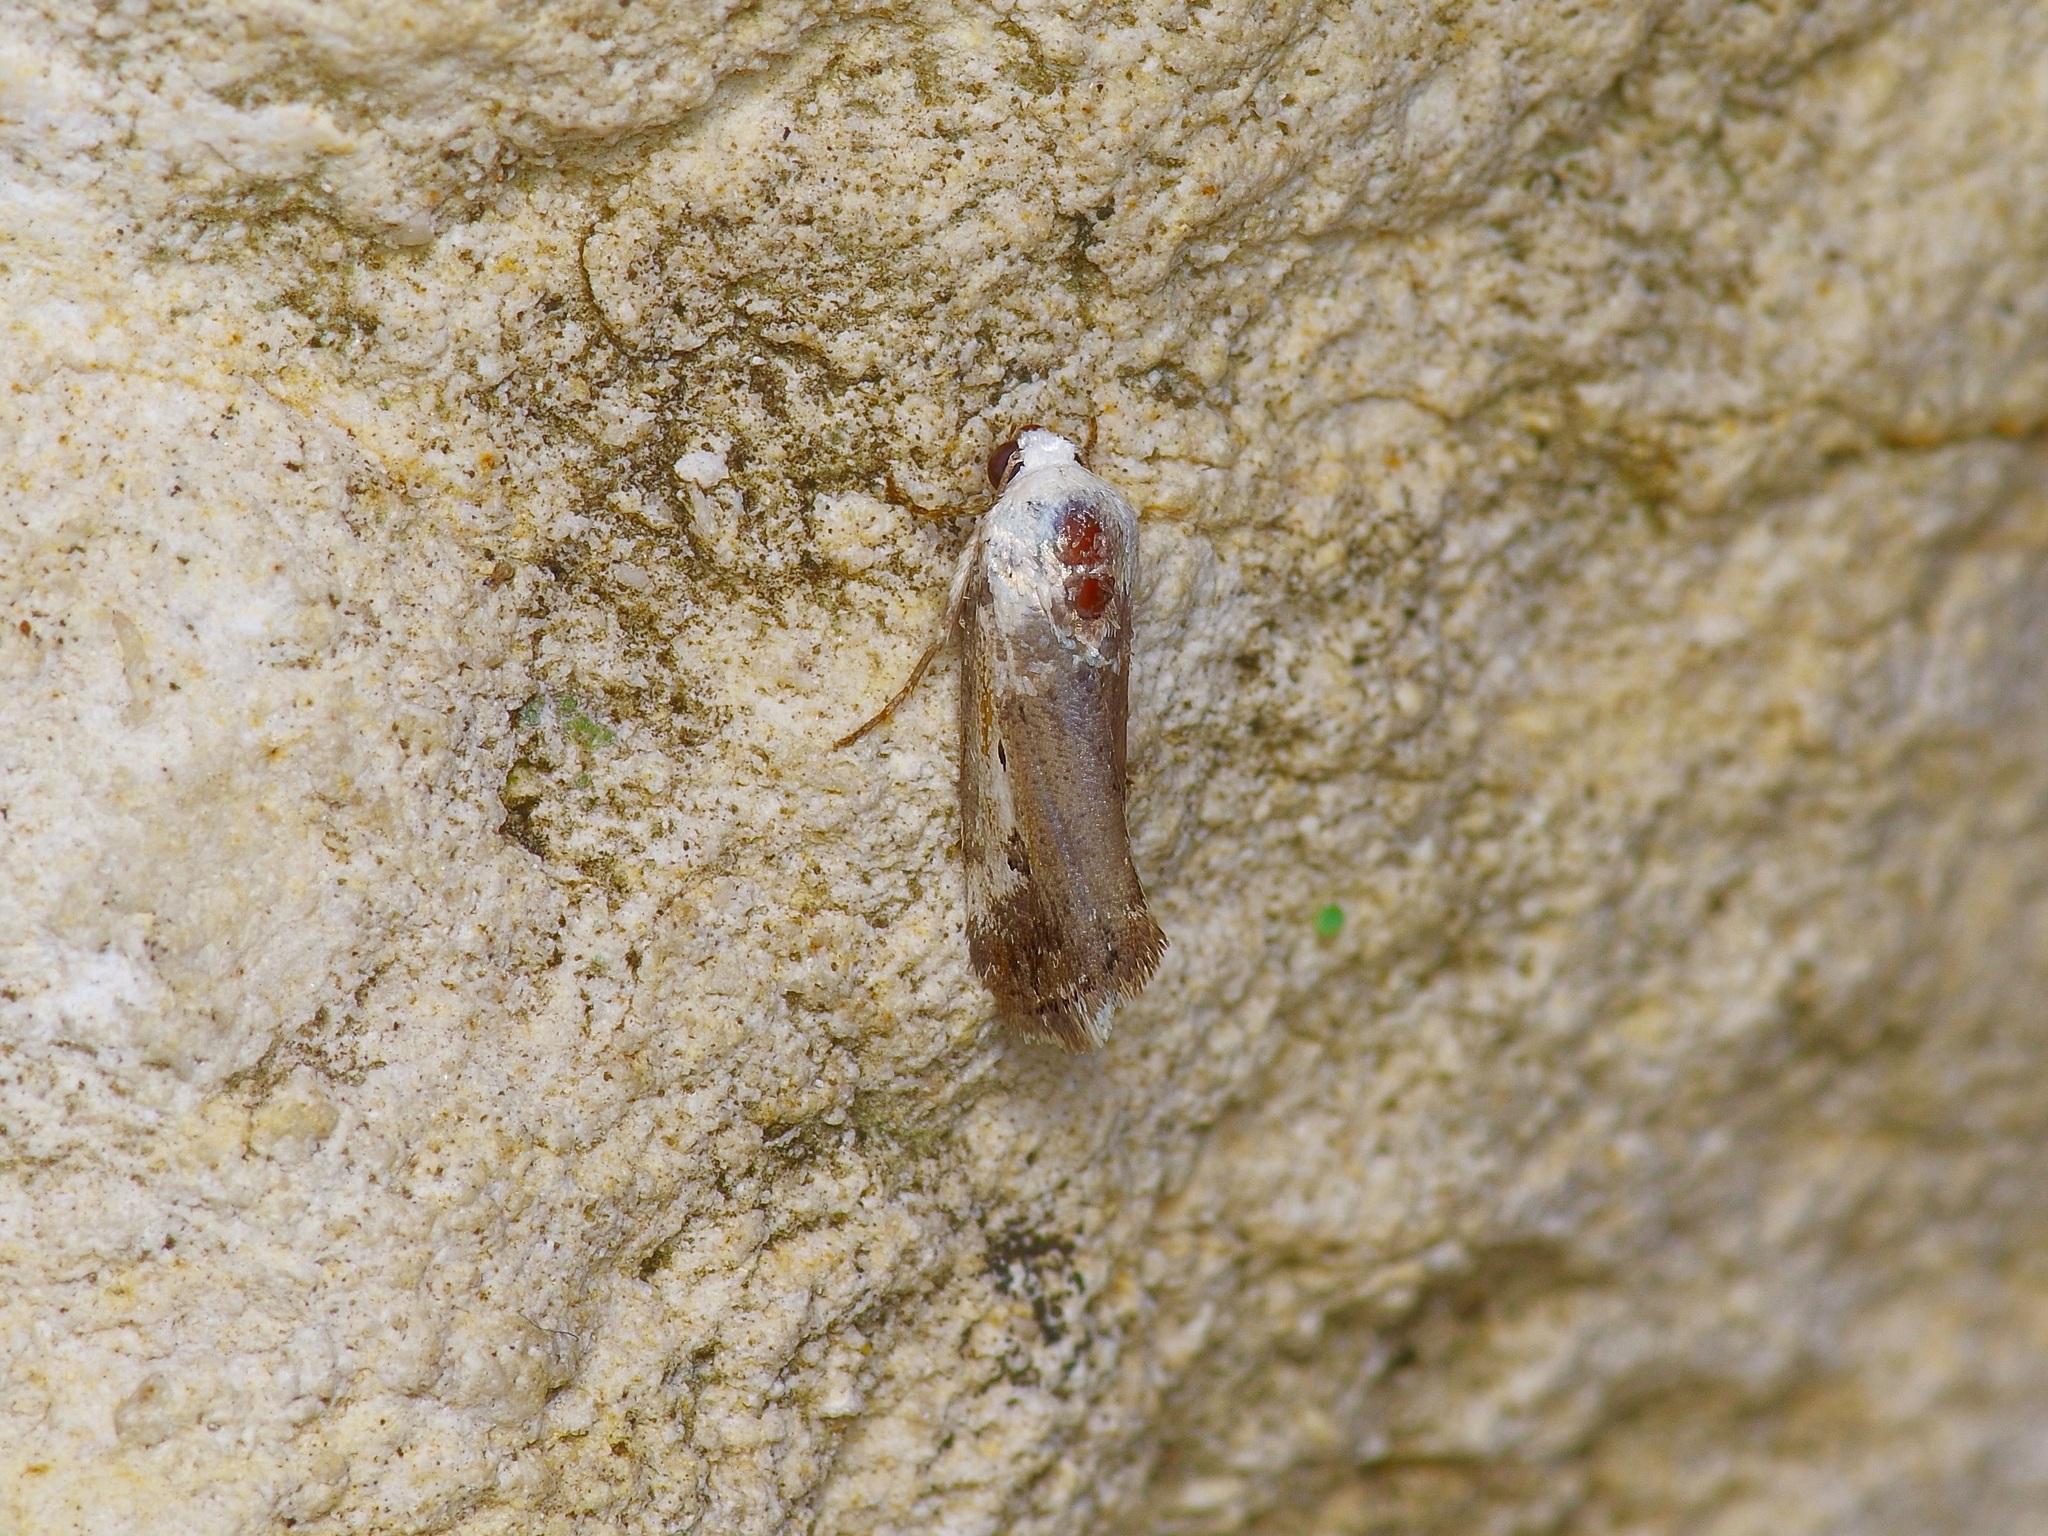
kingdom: Animalia
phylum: Arthropoda
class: Insecta
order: Lepidoptera
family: Noctuidae
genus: Acontia
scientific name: Acontia phecolisca
